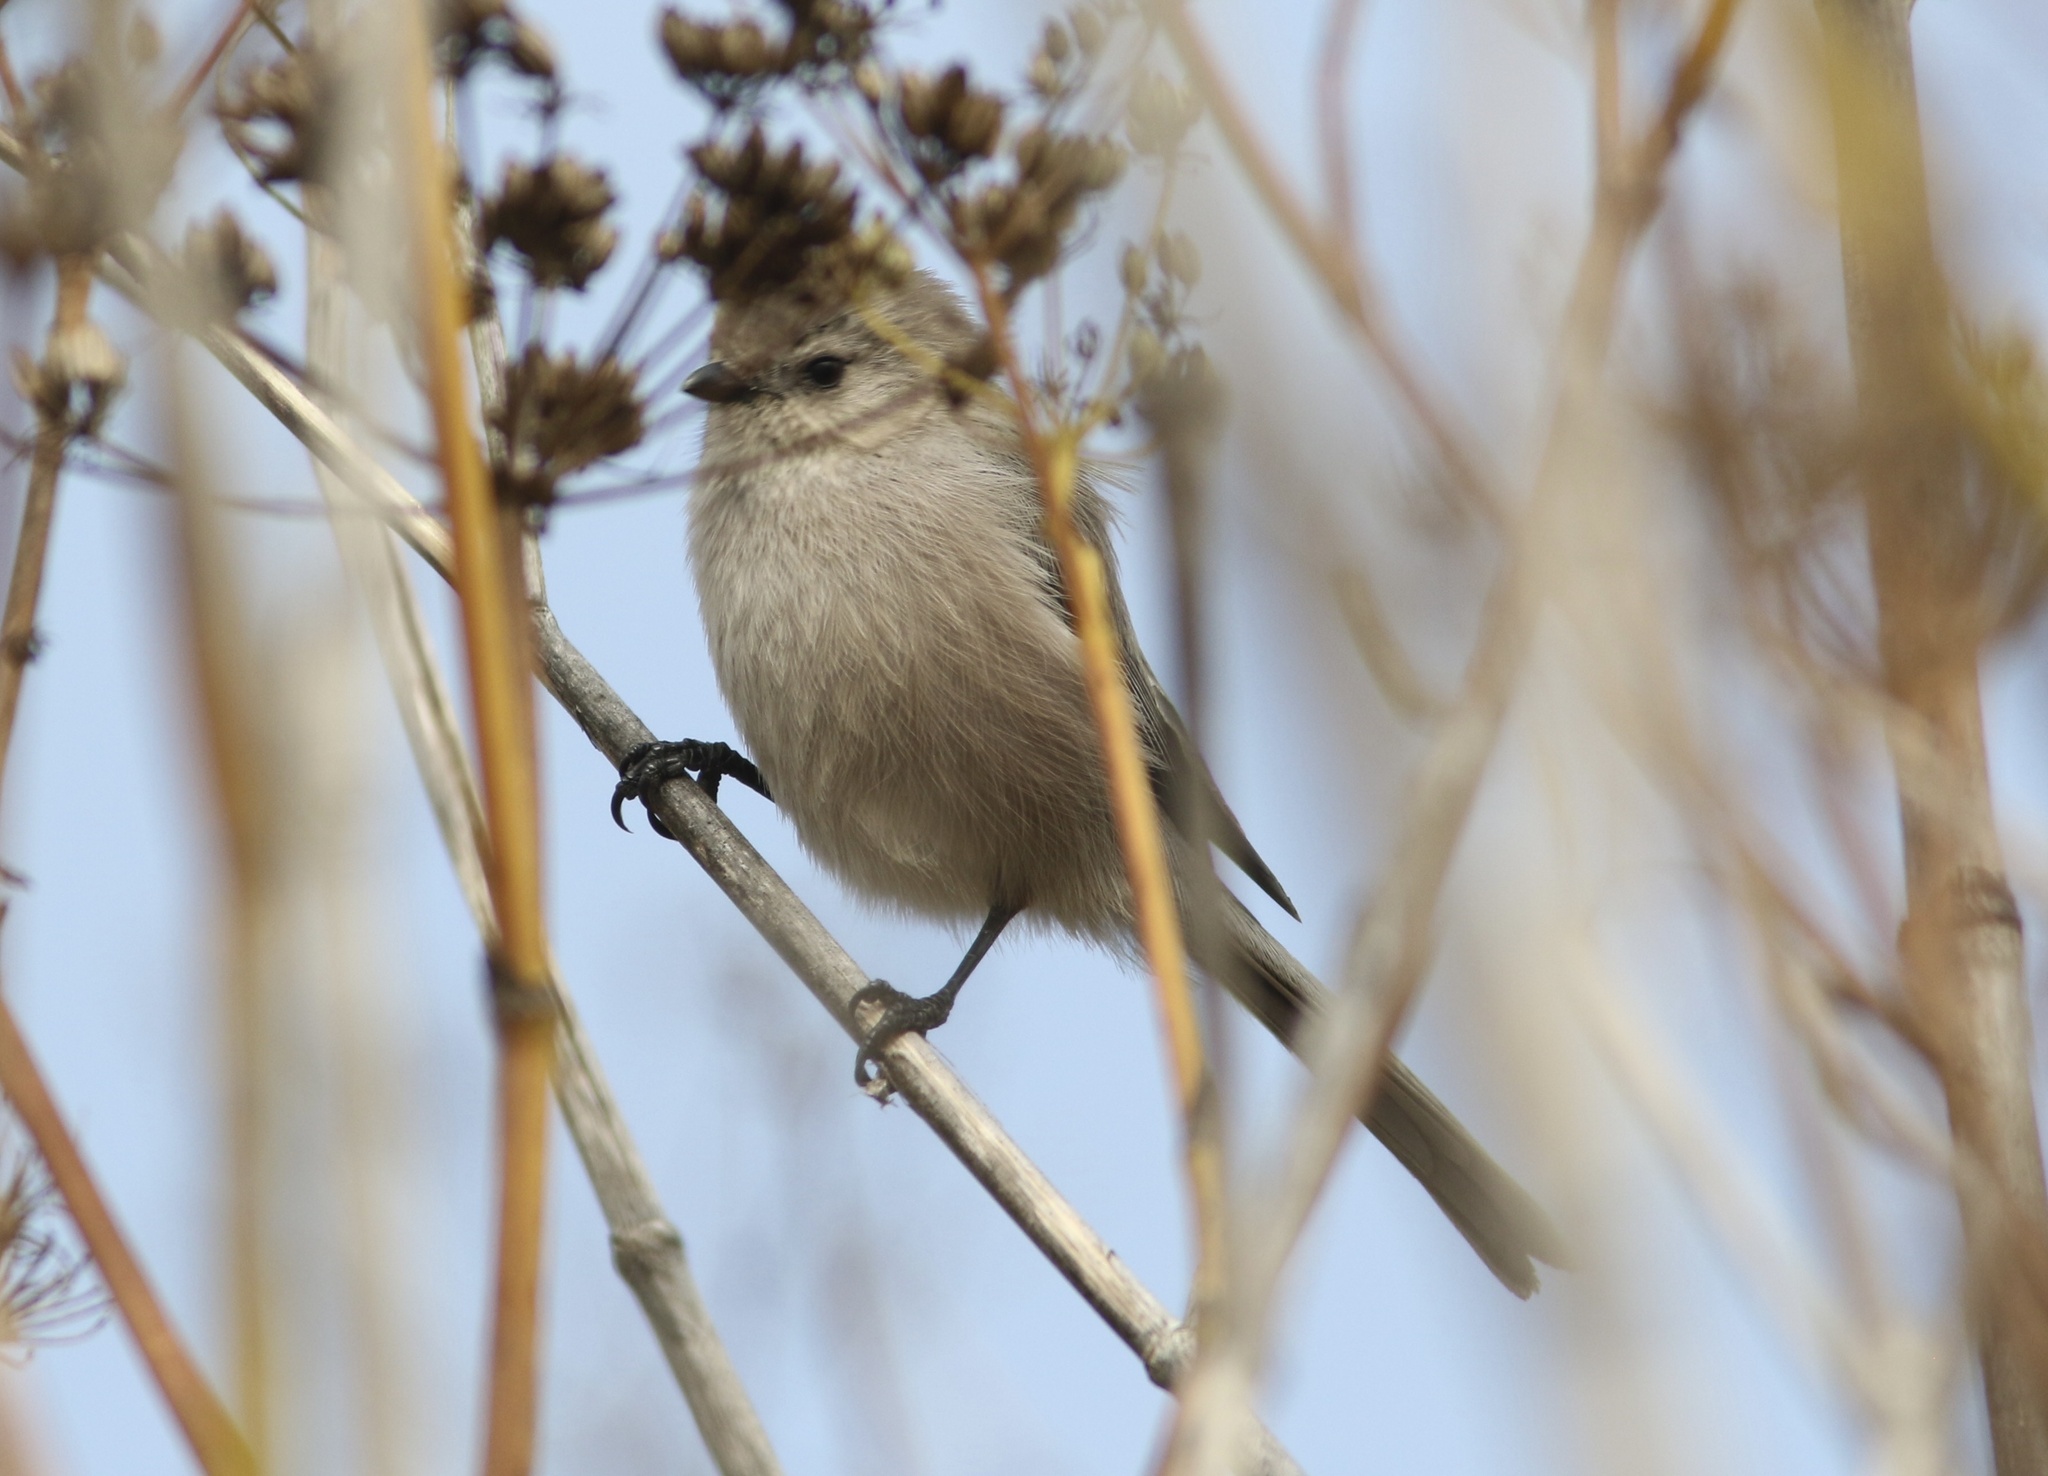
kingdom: Animalia
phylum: Chordata
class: Aves
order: Passeriformes
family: Aegithalidae
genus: Psaltriparus
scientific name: Psaltriparus minimus
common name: American bushtit
